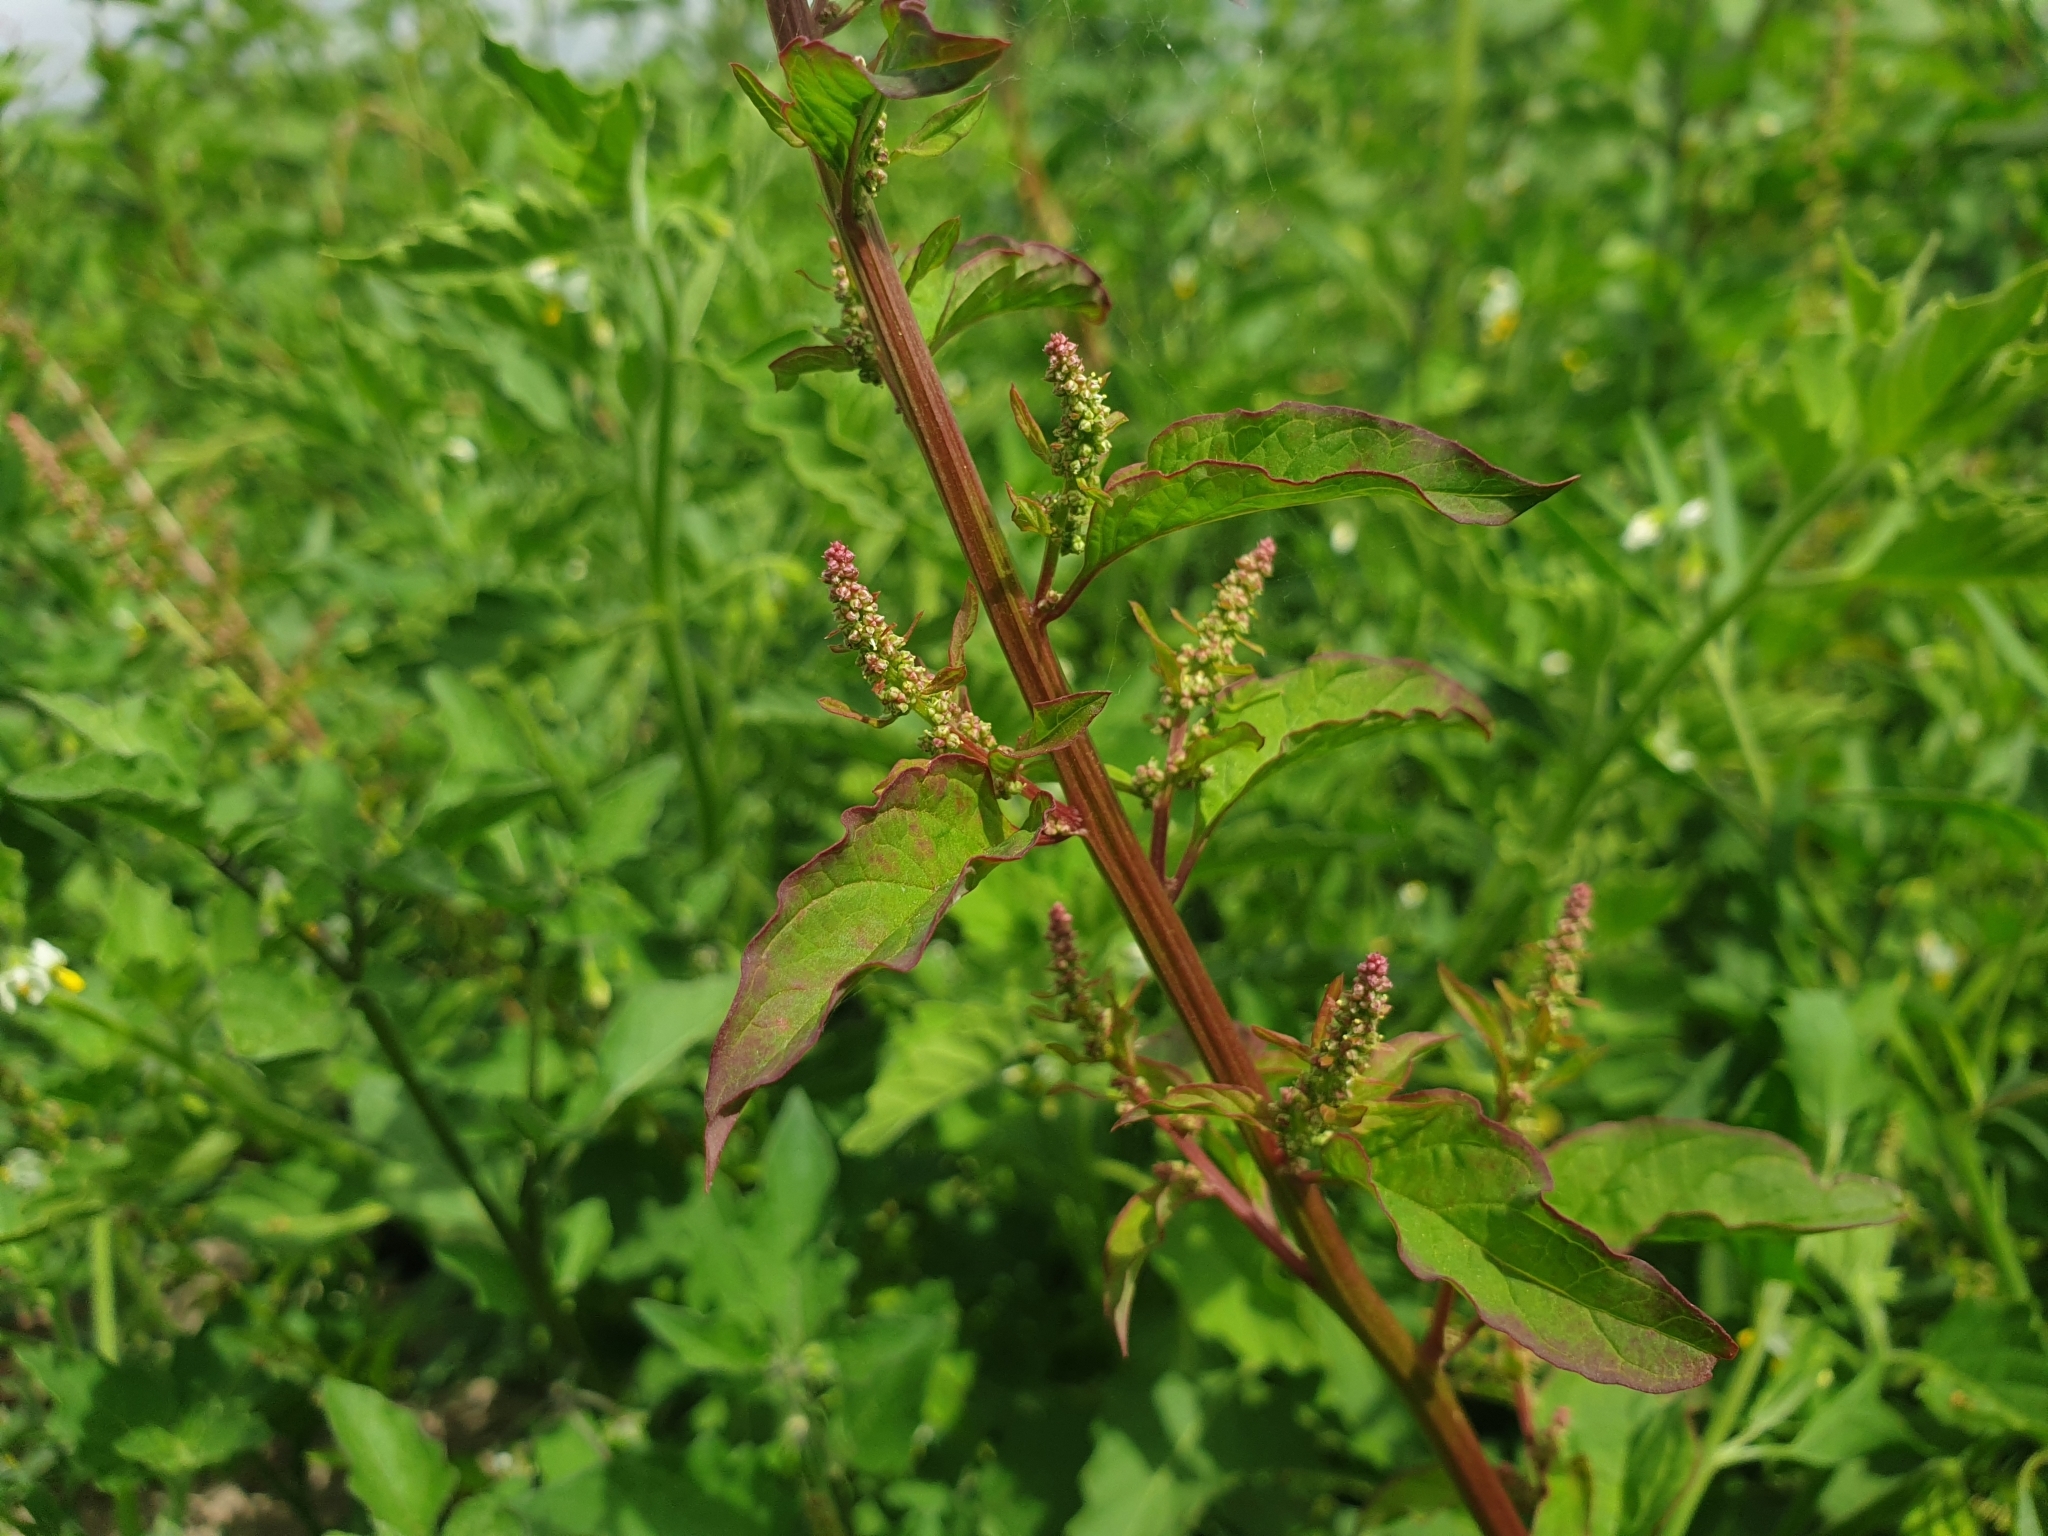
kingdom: Plantae
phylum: Tracheophyta
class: Magnoliopsida
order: Caryophyllales
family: Amaranthaceae
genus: Lipandra
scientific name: Lipandra polysperma
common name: Many-seed goosefoot
